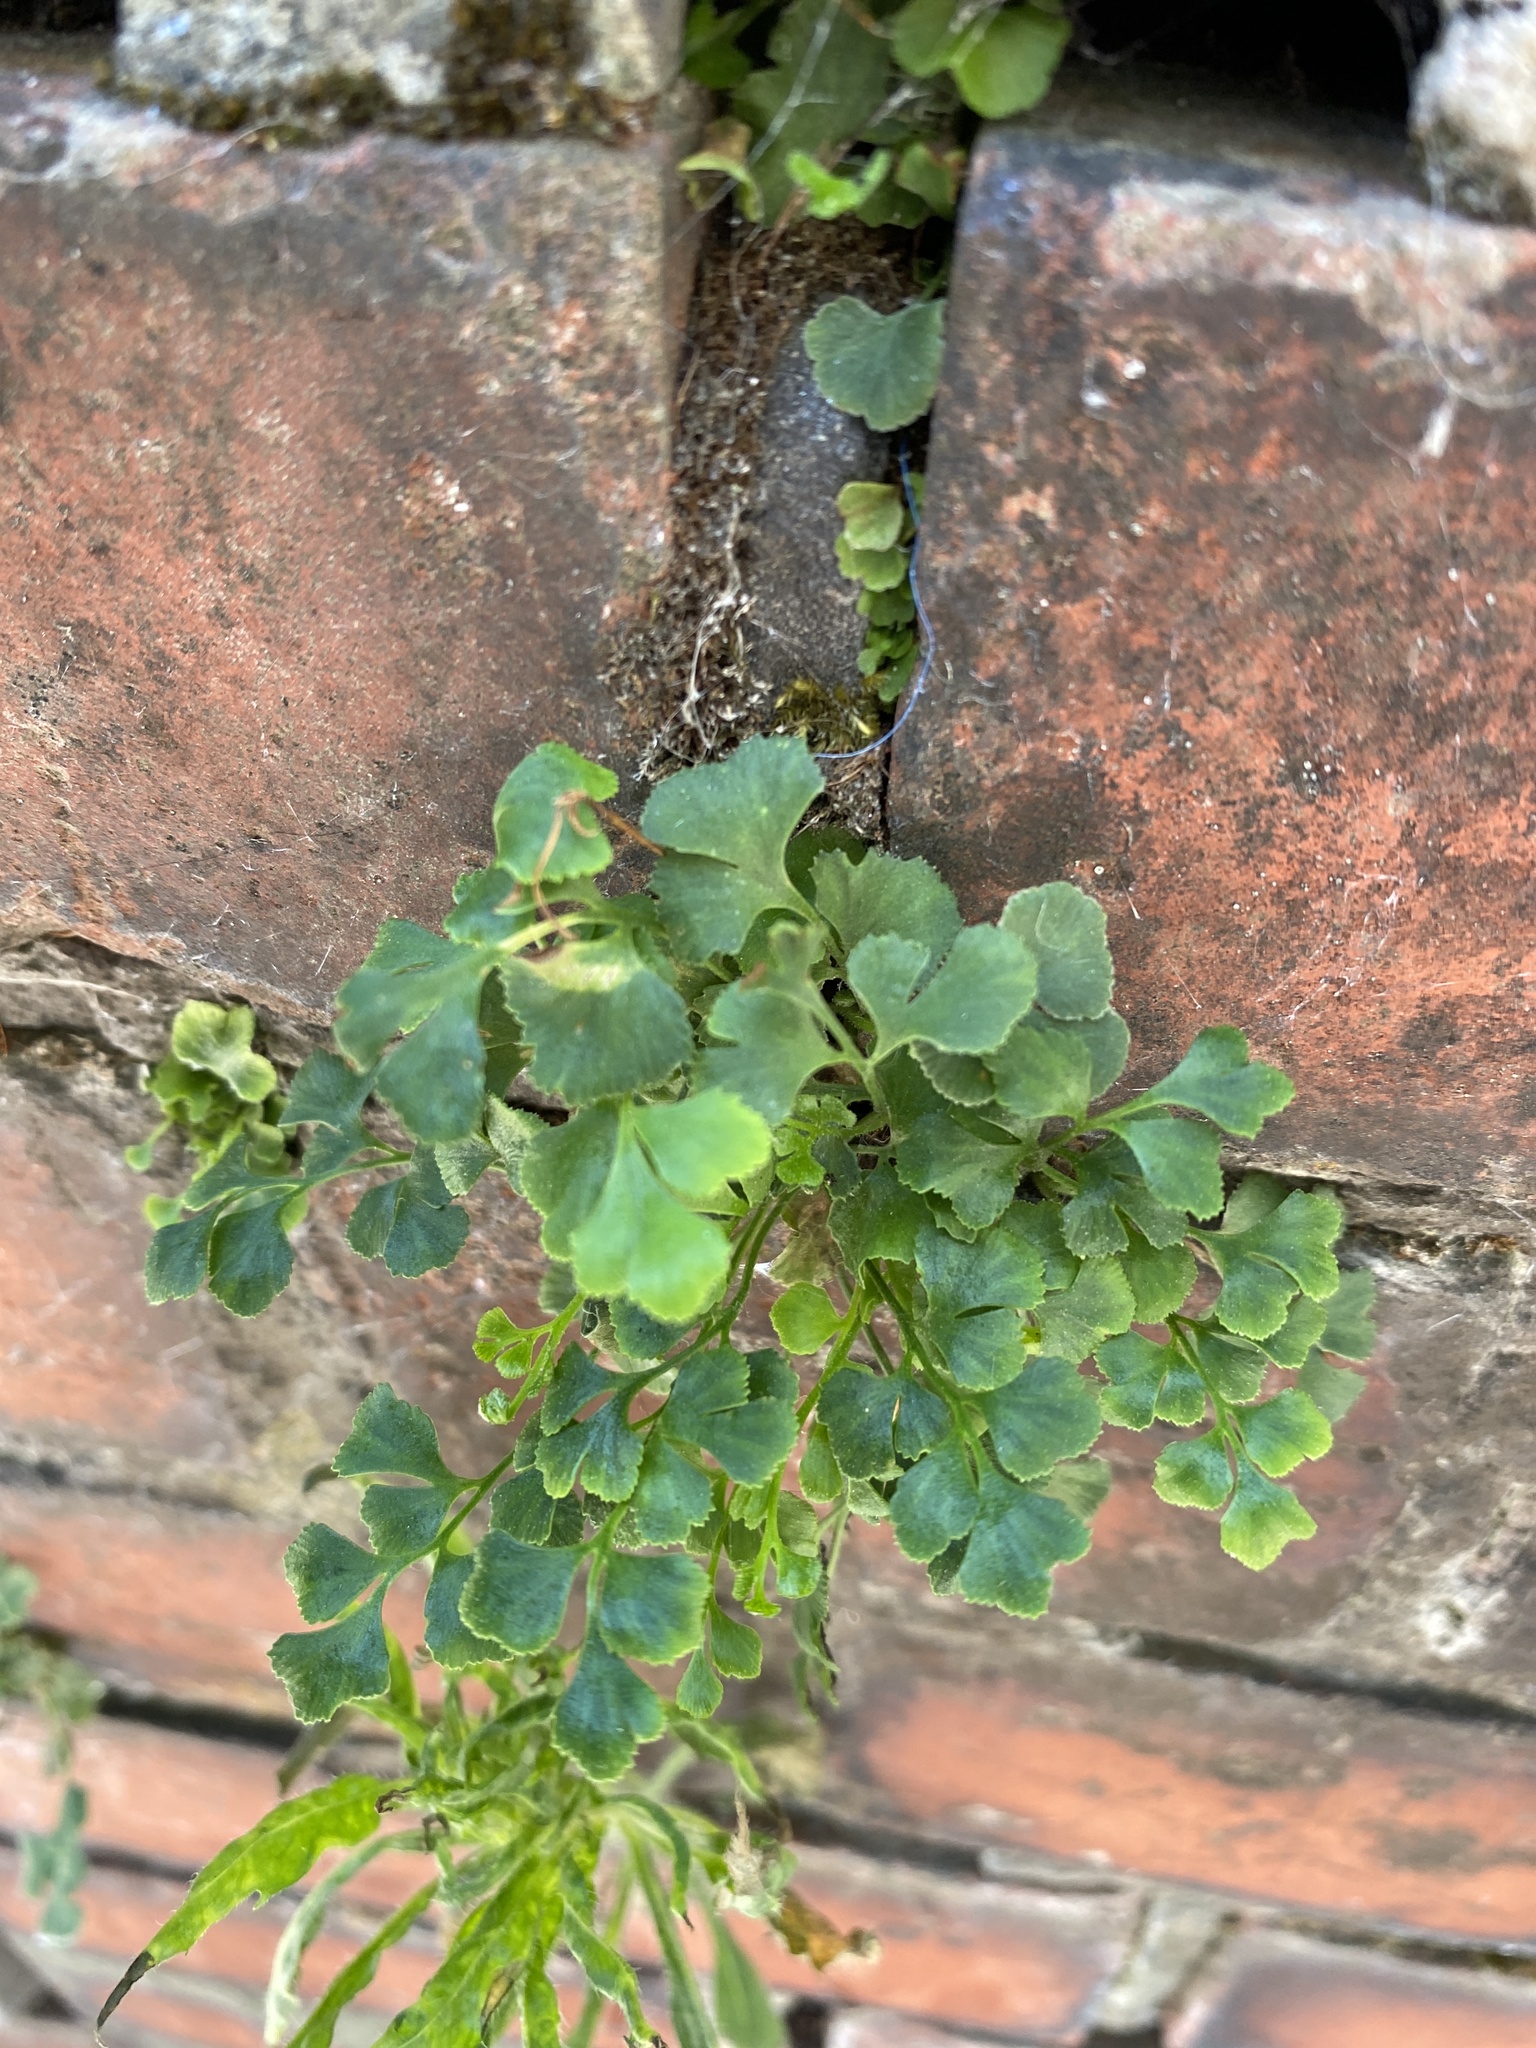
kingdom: Plantae
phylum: Tracheophyta
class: Polypodiopsida
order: Polypodiales
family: Aspleniaceae
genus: Asplenium
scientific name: Asplenium ruta-muraria
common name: Wall-rue
